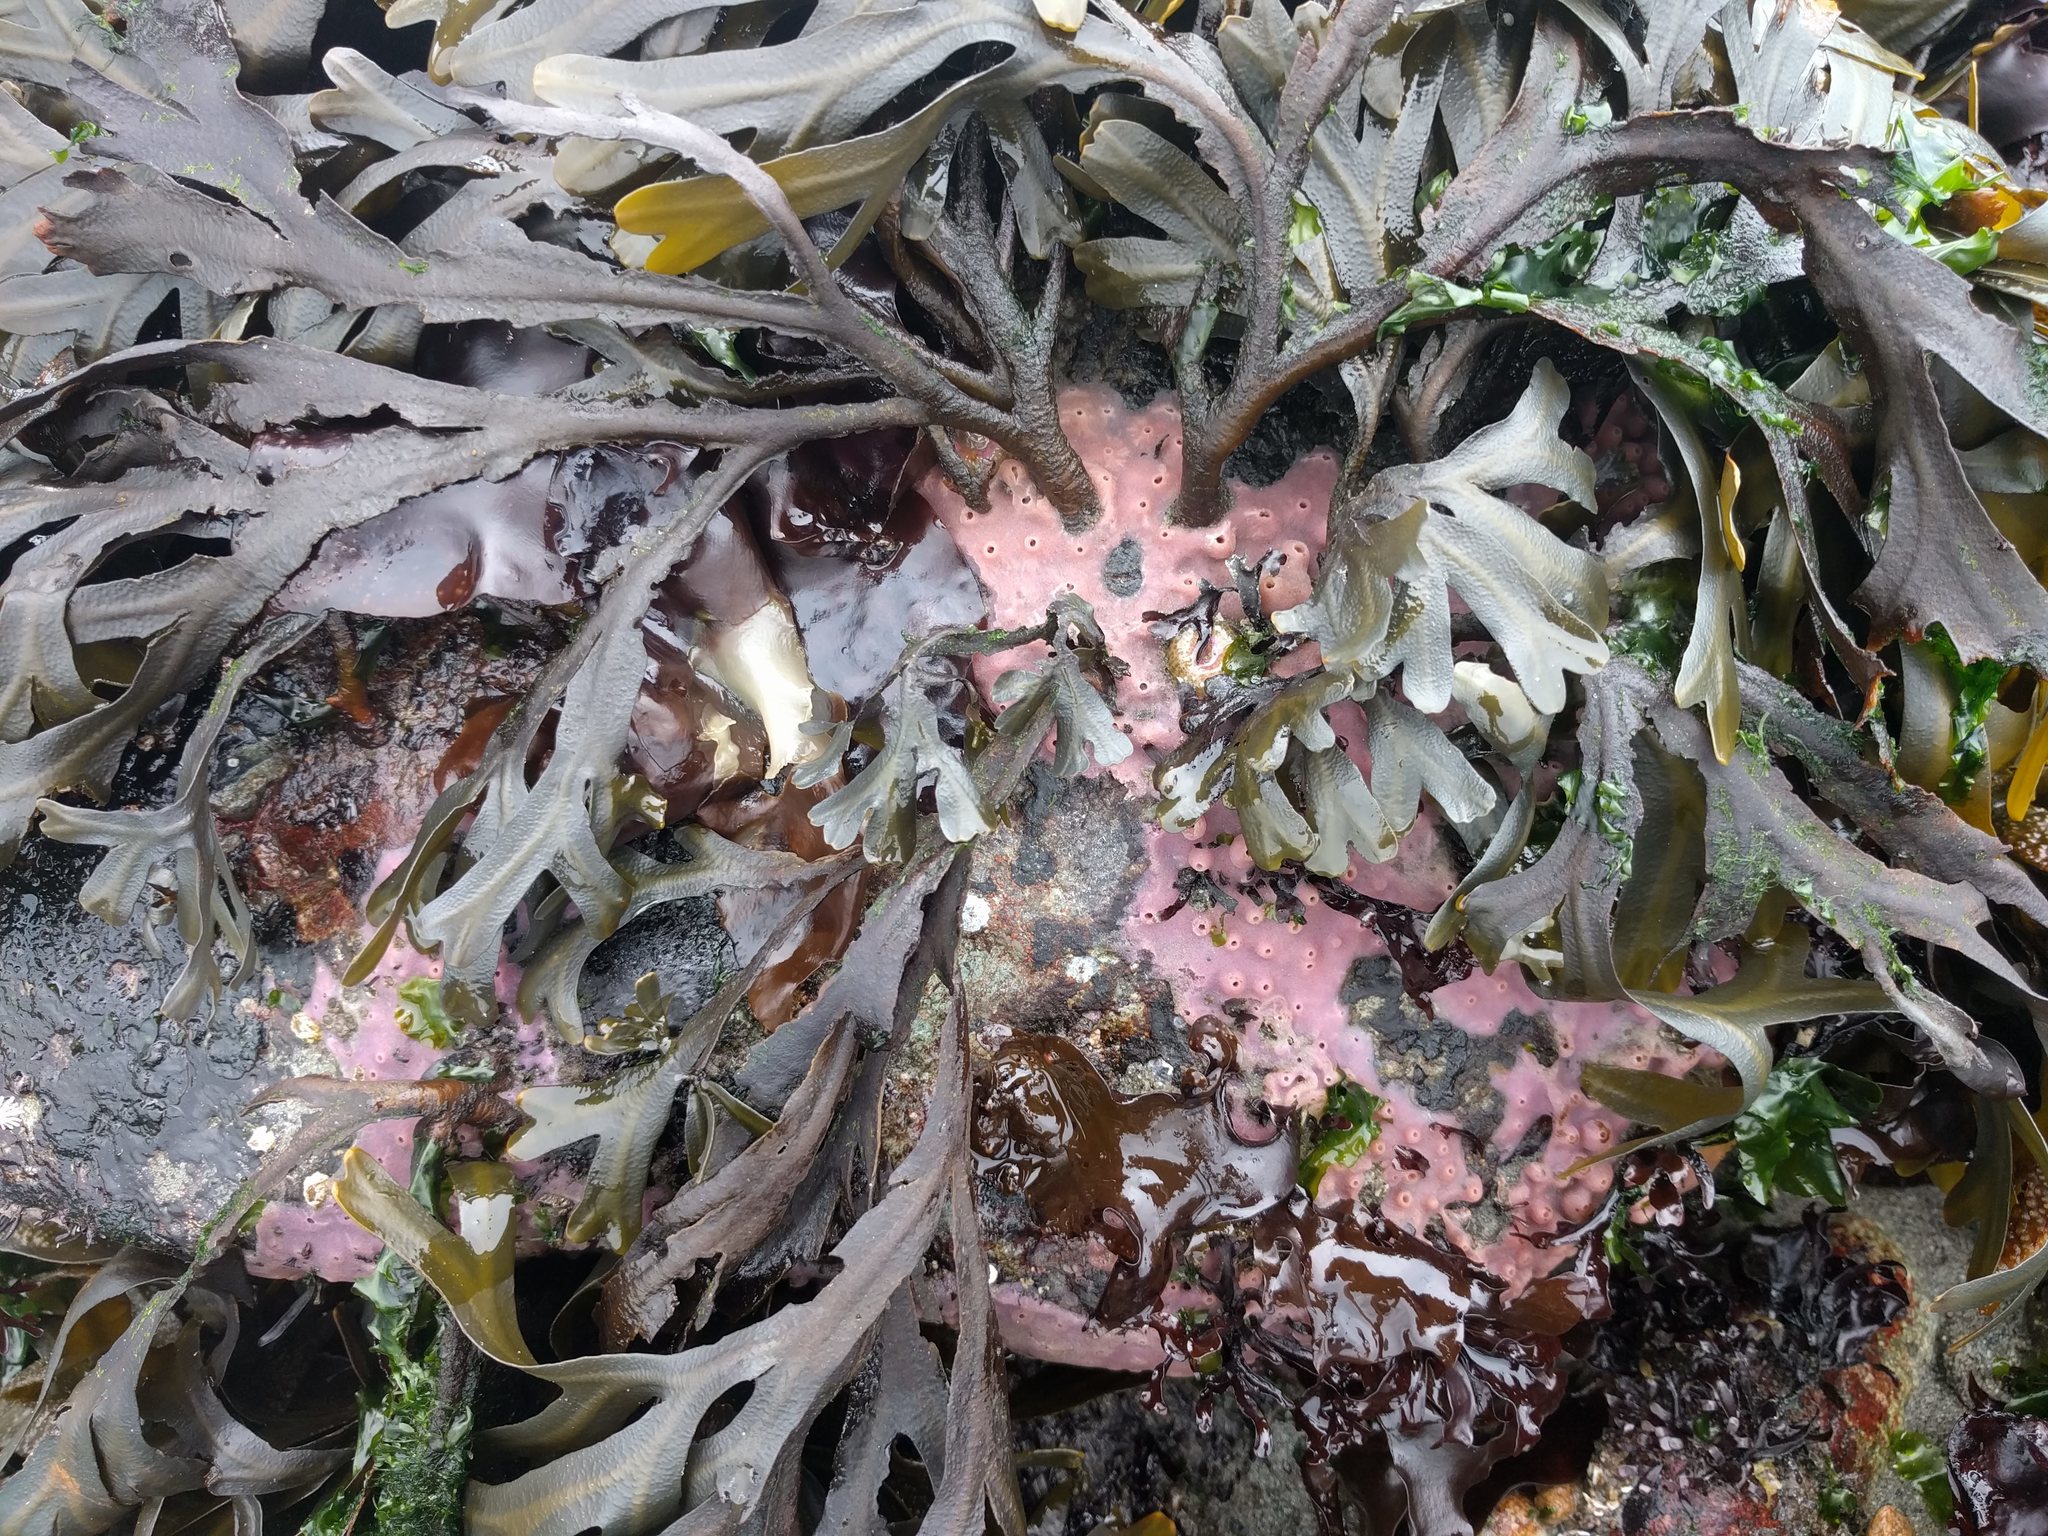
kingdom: Chromista
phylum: Ochrophyta
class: Phaeophyceae
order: Fucales
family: Fucaceae
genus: Fucus
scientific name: Fucus distichus
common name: Rockweed
